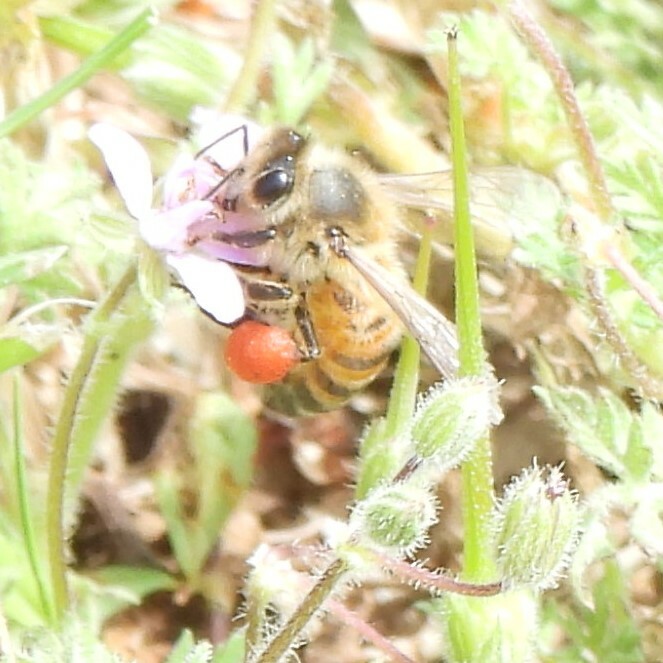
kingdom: Animalia
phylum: Arthropoda
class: Insecta
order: Hymenoptera
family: Apidae
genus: Apis
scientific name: Apis mellifera
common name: Honey bee
